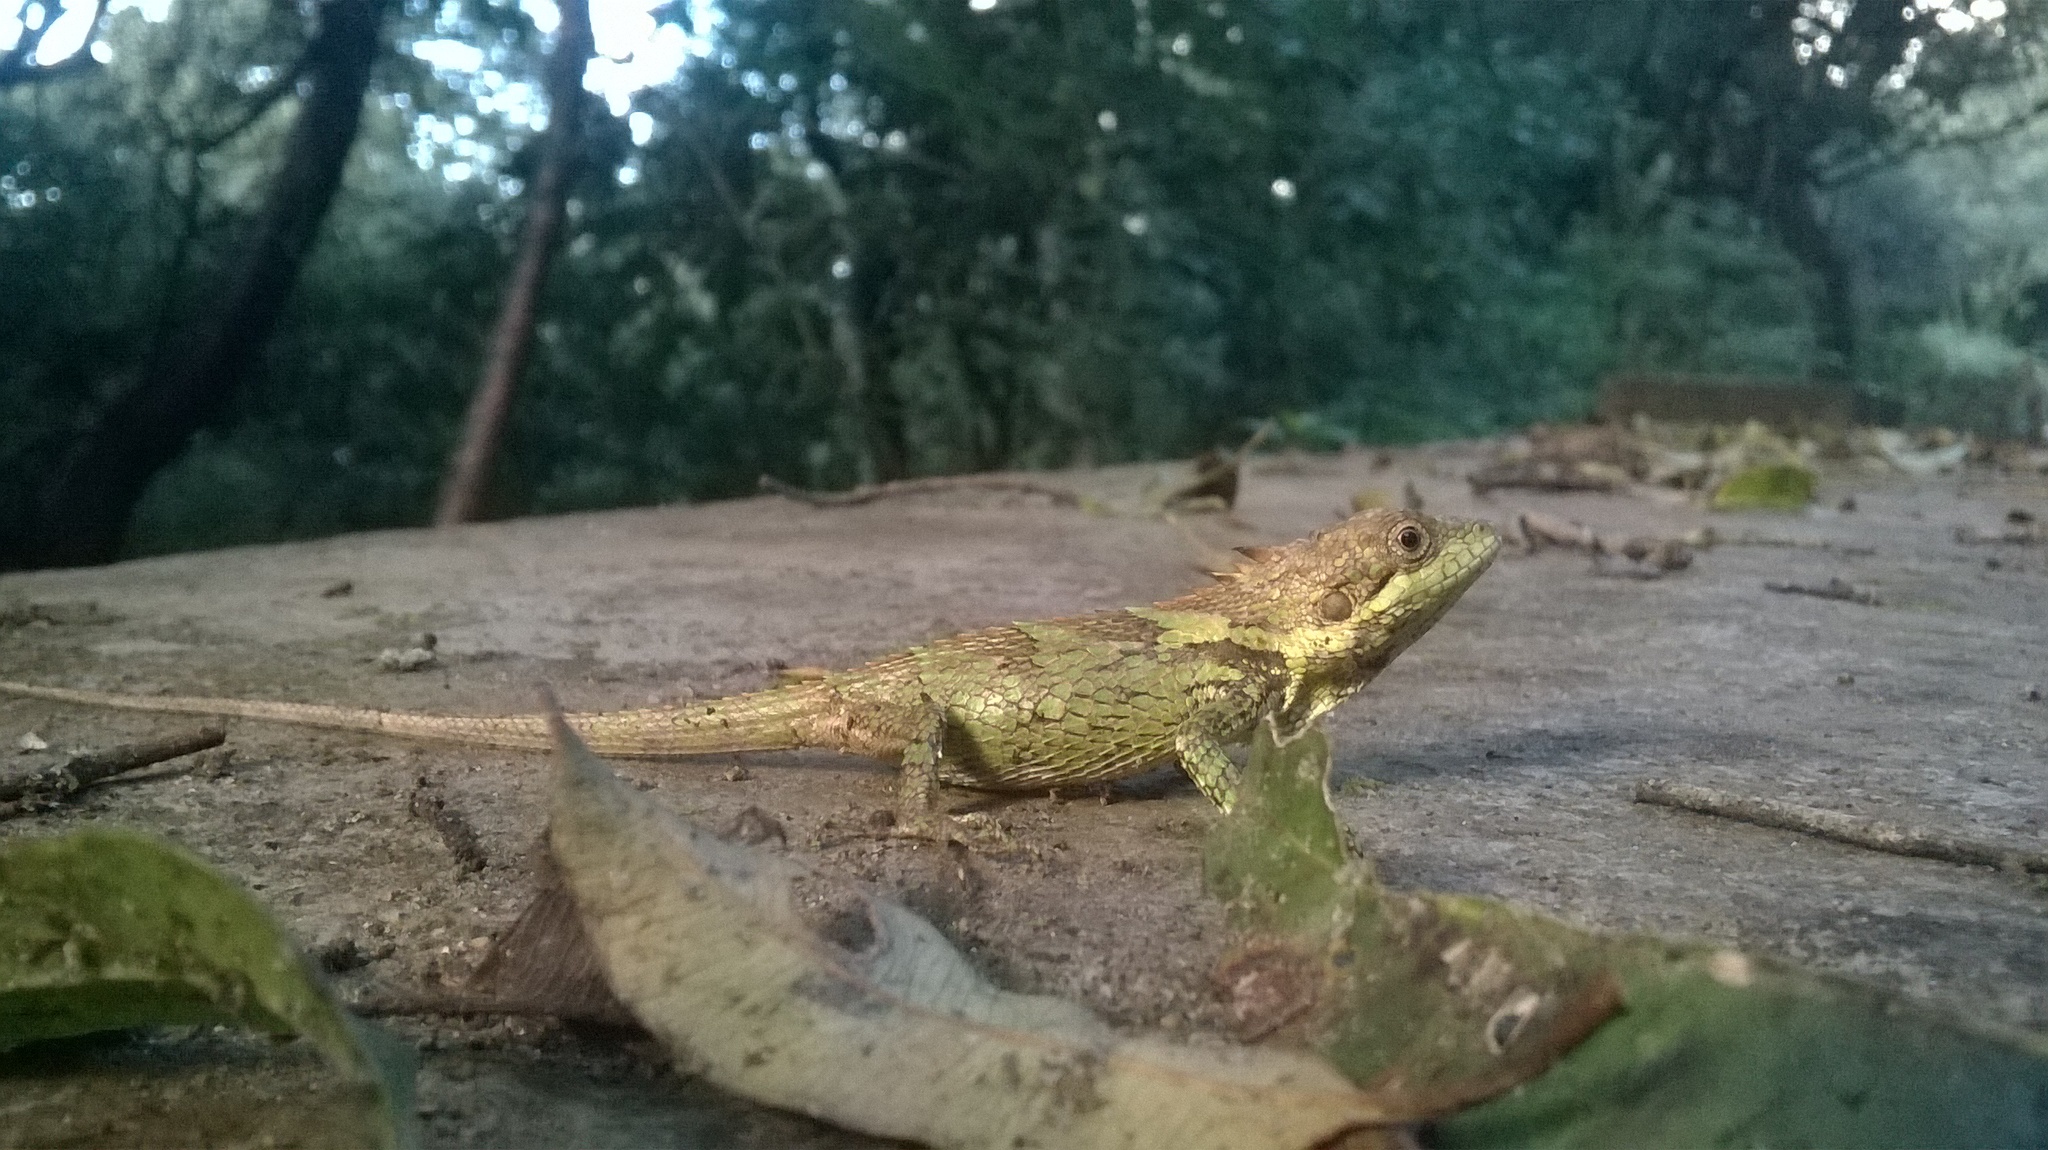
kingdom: Animalia
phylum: Chordata
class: Squamata
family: Agamidae
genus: Salea
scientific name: Salea anamallayana
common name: Anaimalai spiny lizard
